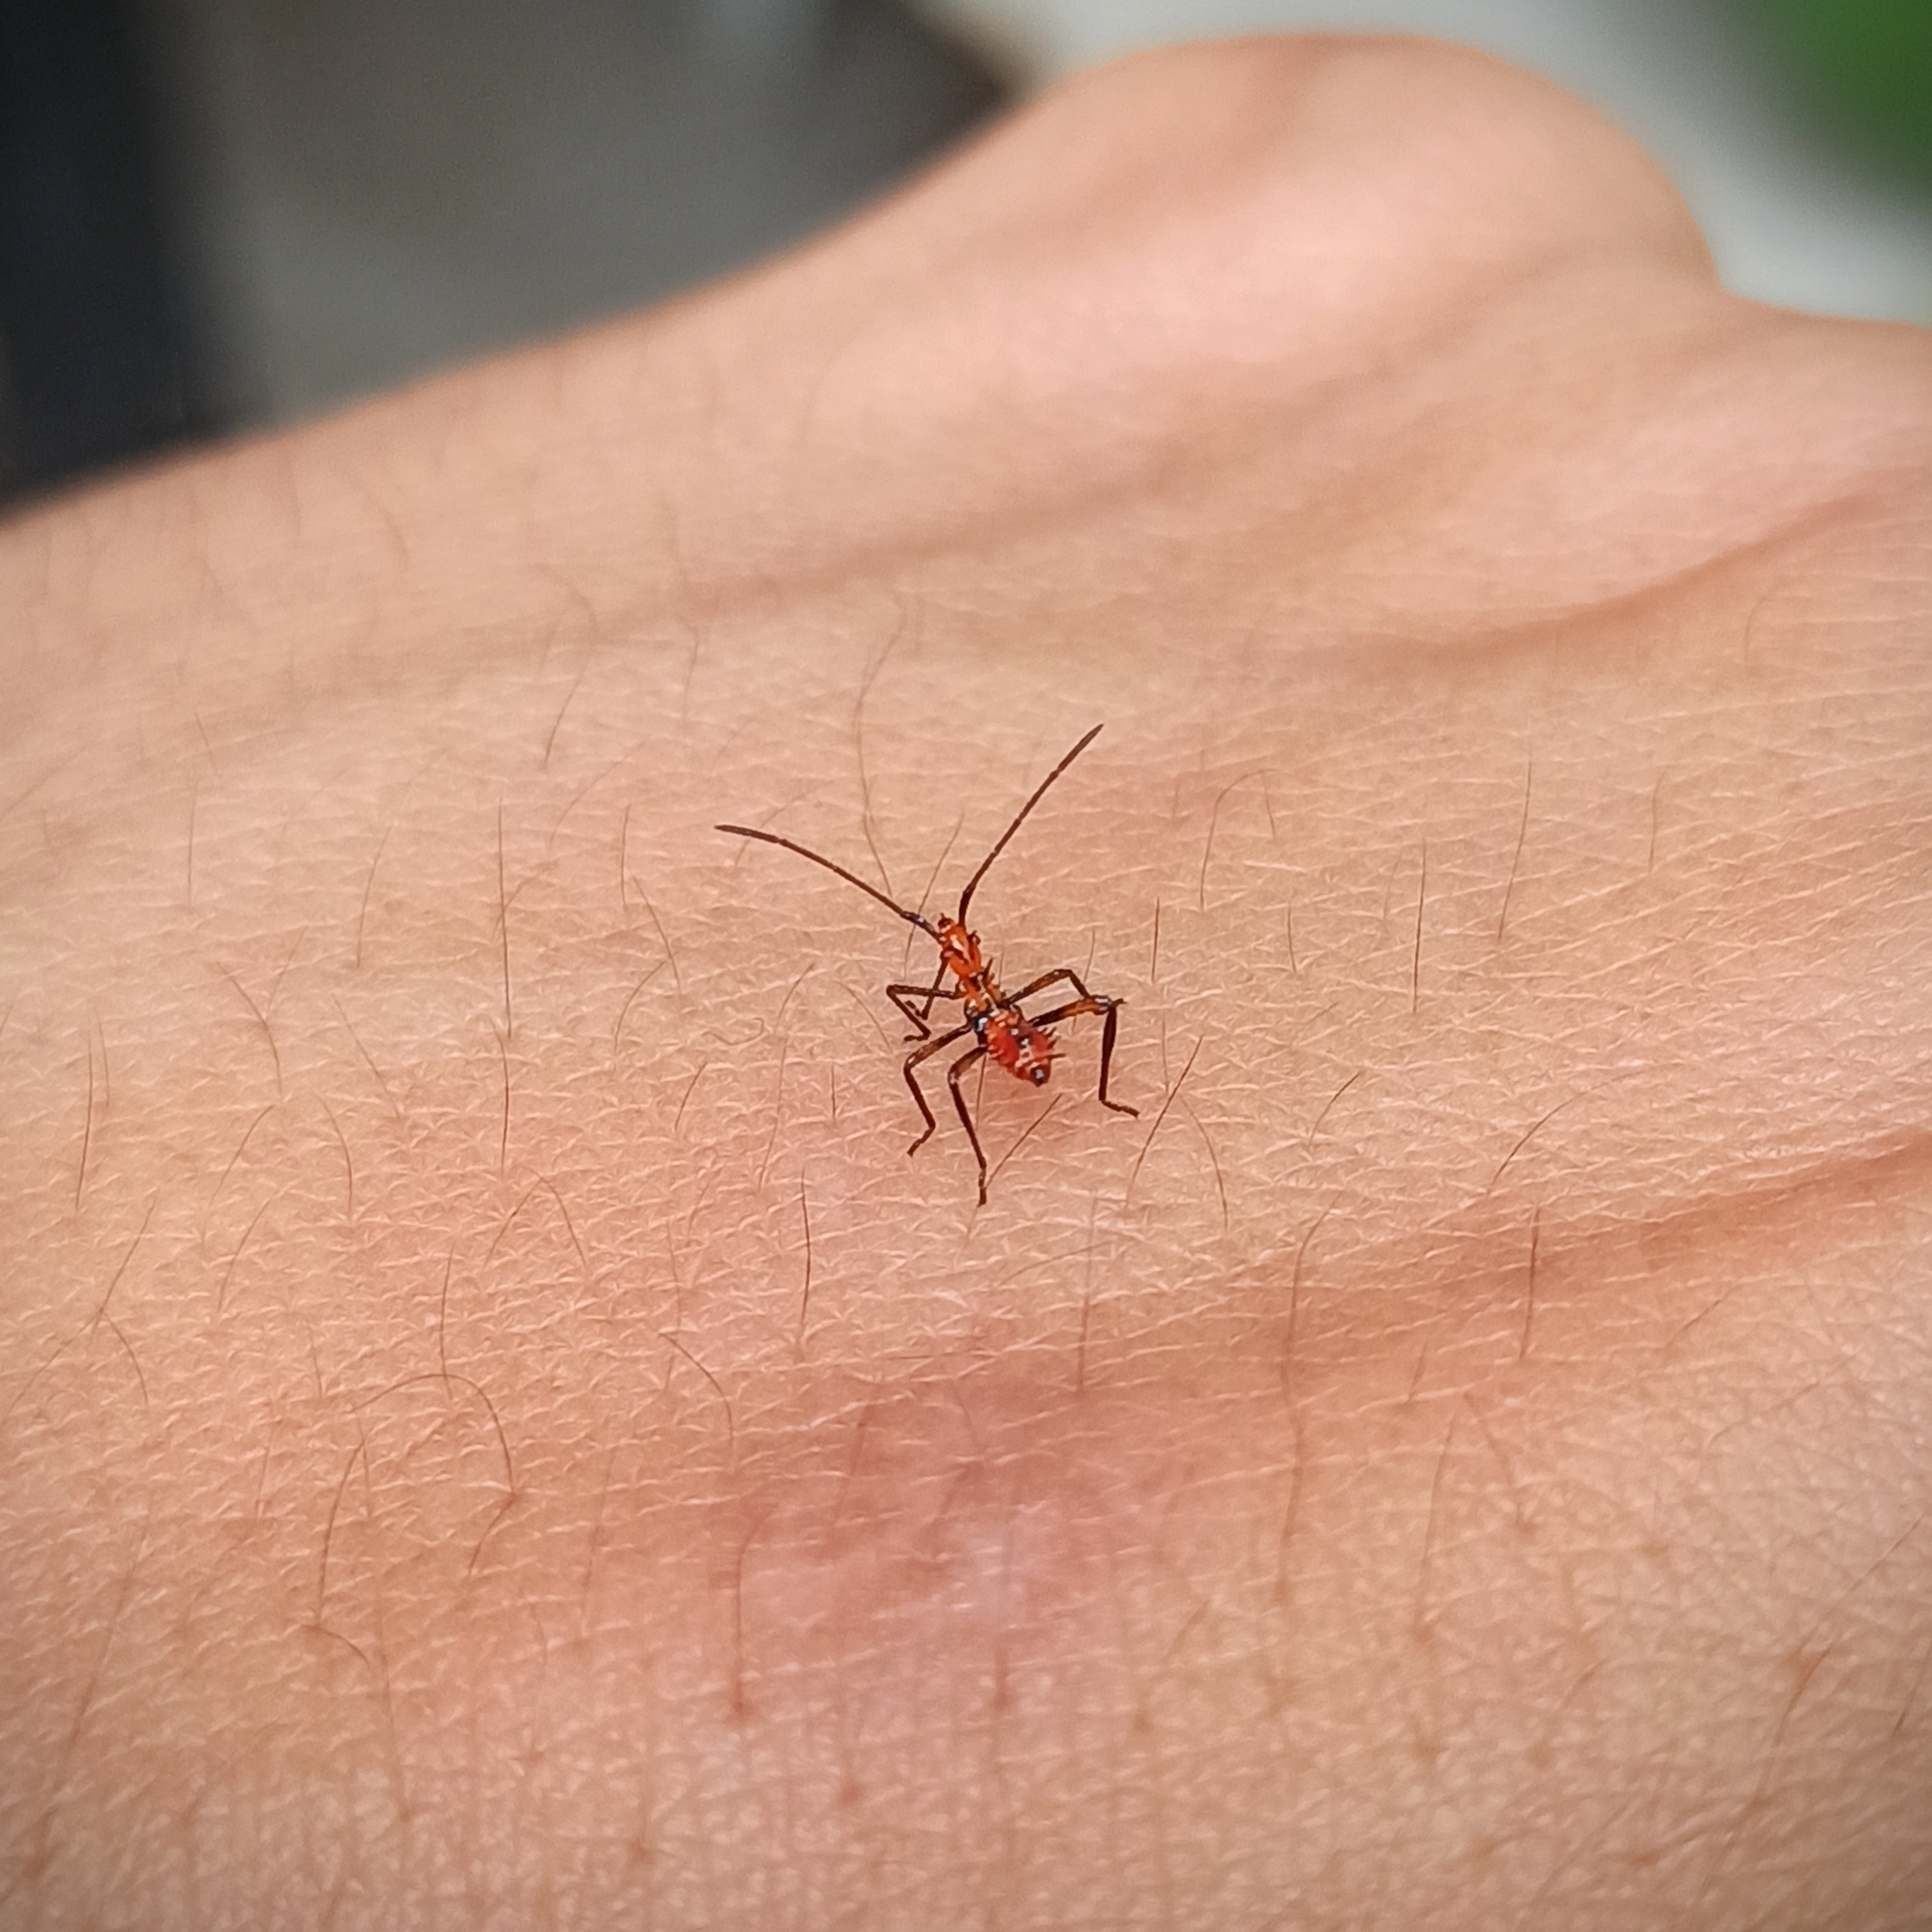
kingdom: Animalia
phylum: Arthropoda
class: Insecta
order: Hemiptera
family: Coreidae
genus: Leptoglossus
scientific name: Leptoglossus zonatus
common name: Large-legged bug
